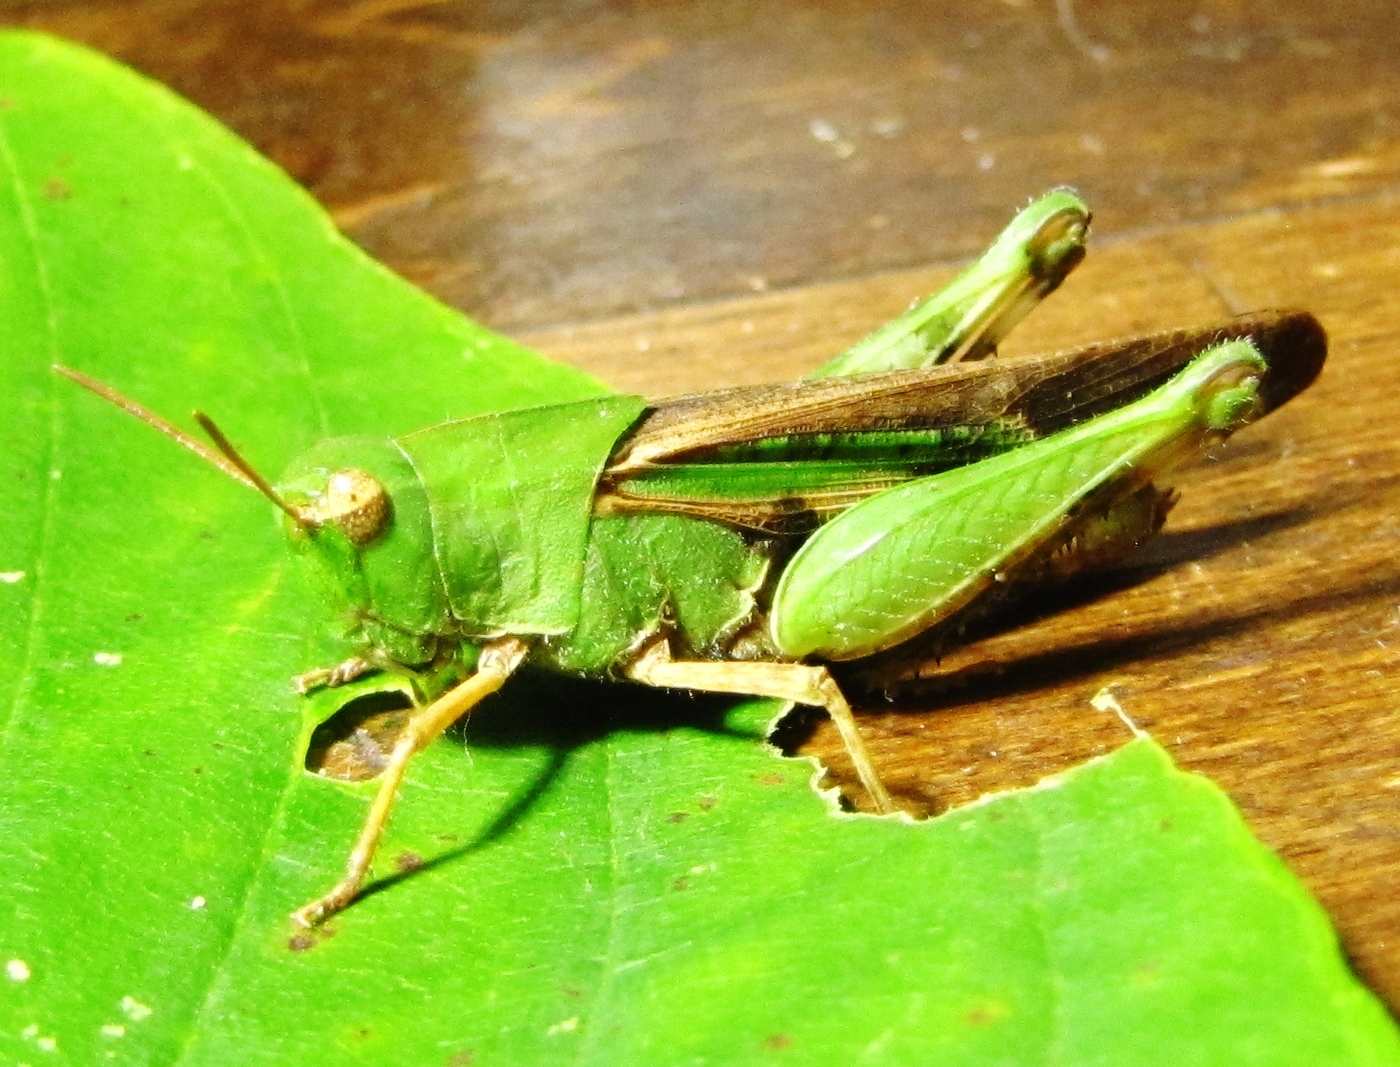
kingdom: Animalia
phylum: Arthropoda
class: Insecta
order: Orthoptera
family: Acrididae
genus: Chortophaga
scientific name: Chortophaga viridifasciata
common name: Green-striped grasshopper
